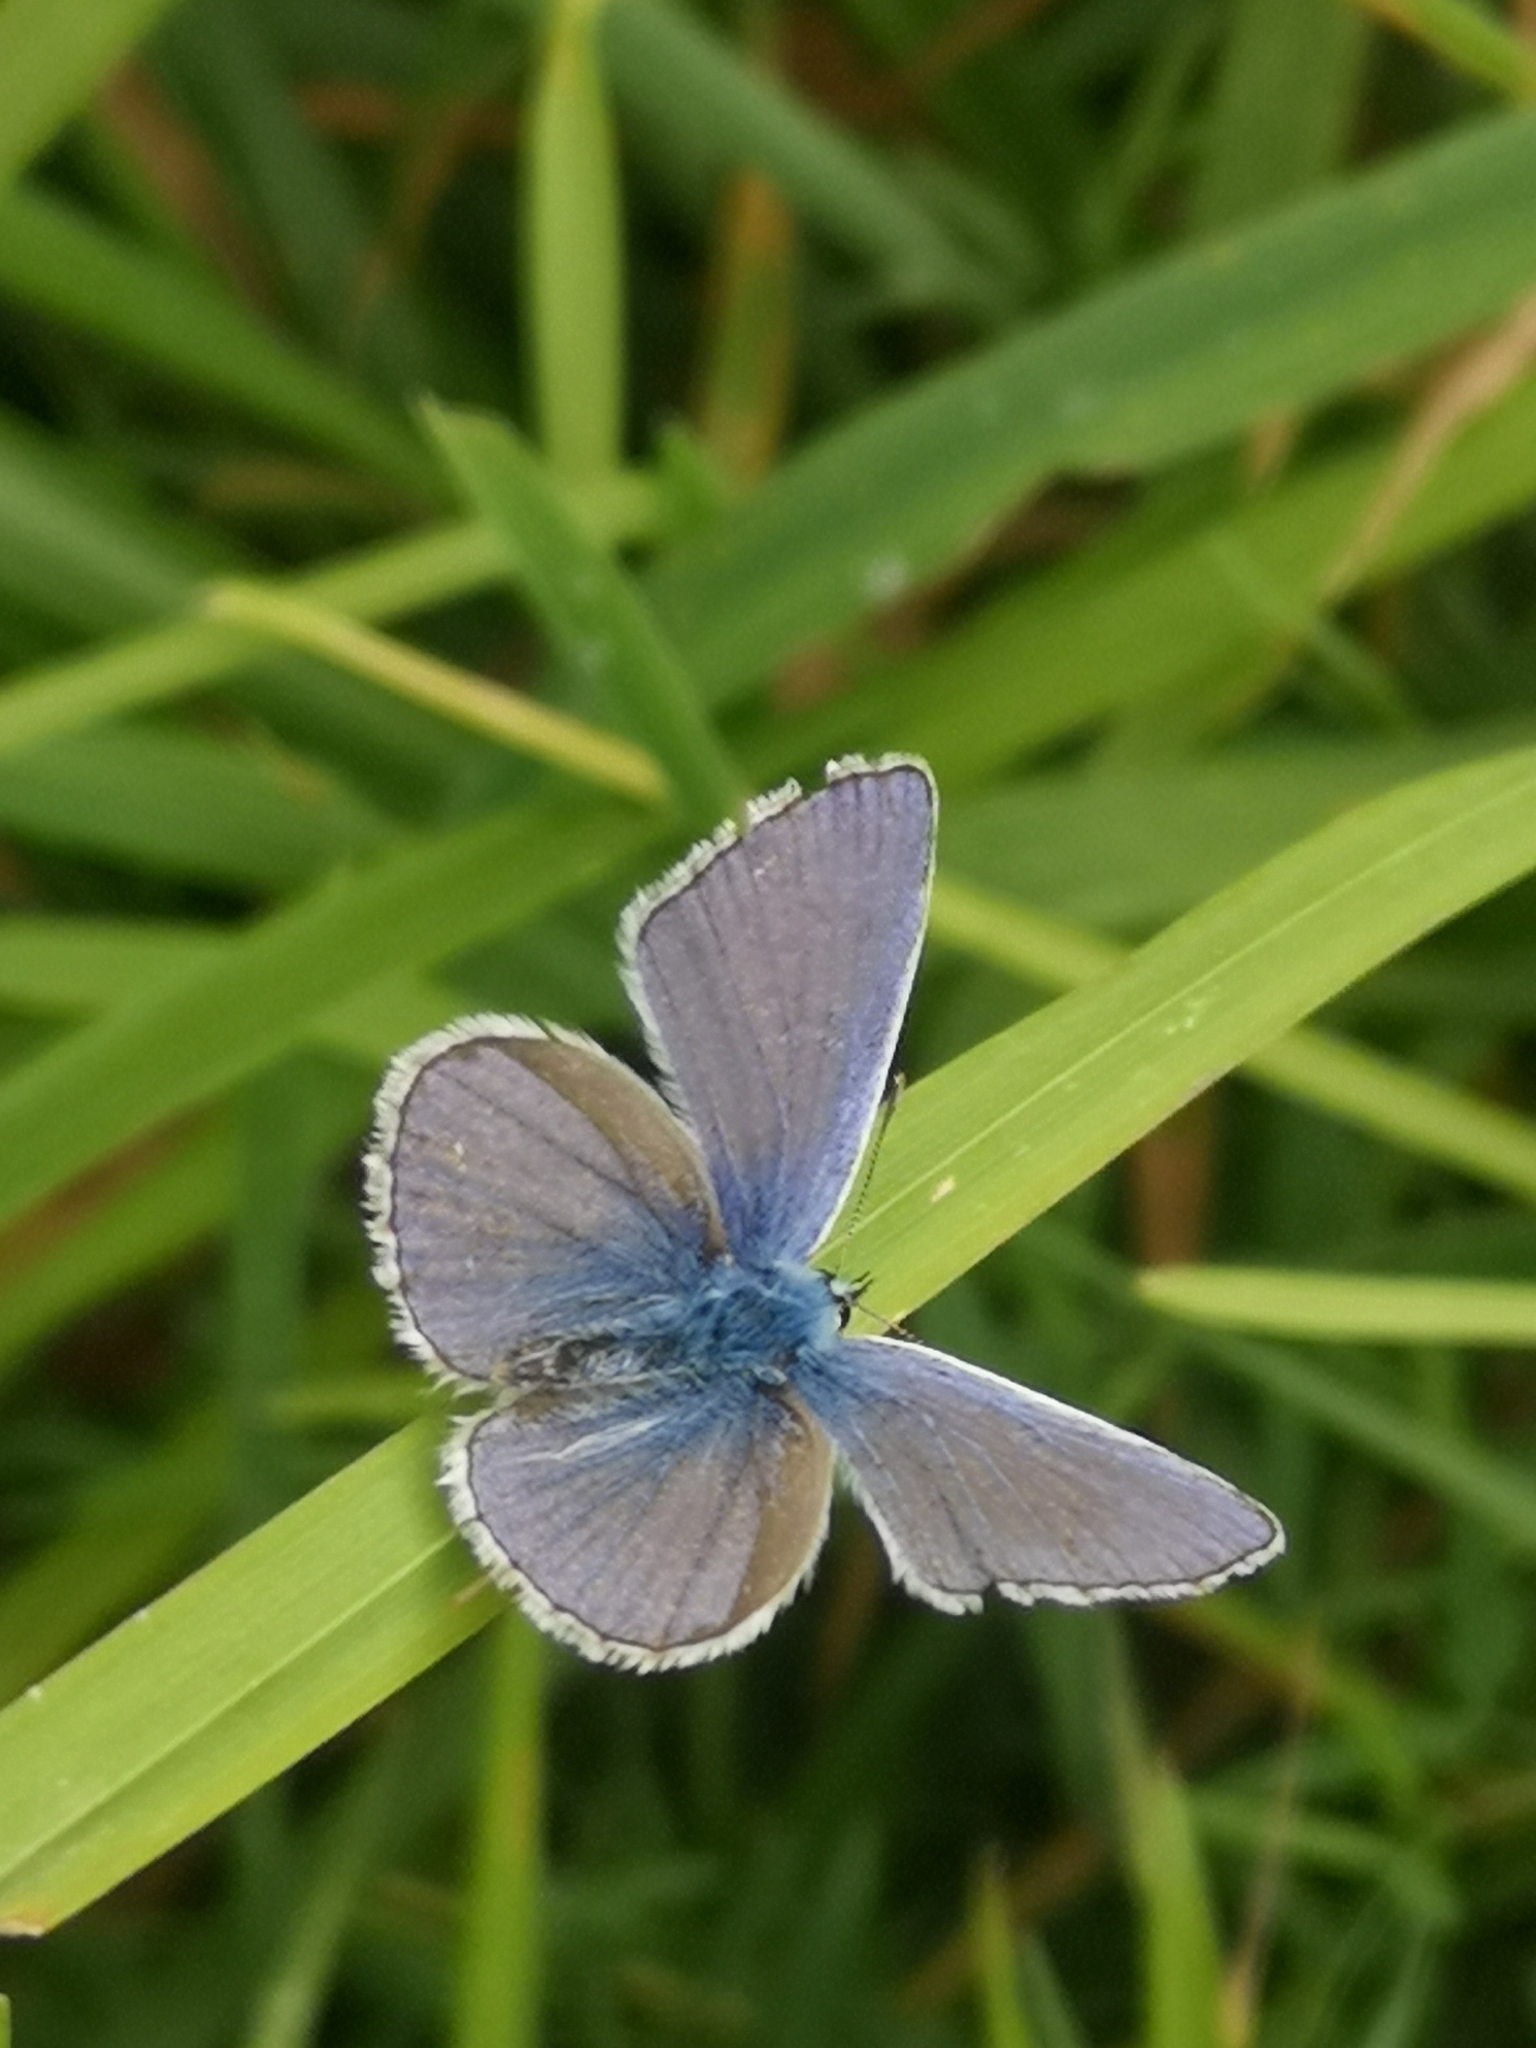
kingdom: Animalia
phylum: Arthropoda
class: Insecta
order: Lepidoptera
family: Lycaenidae
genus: Polyommatus
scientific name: Polyommatus icarus
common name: Common blue
